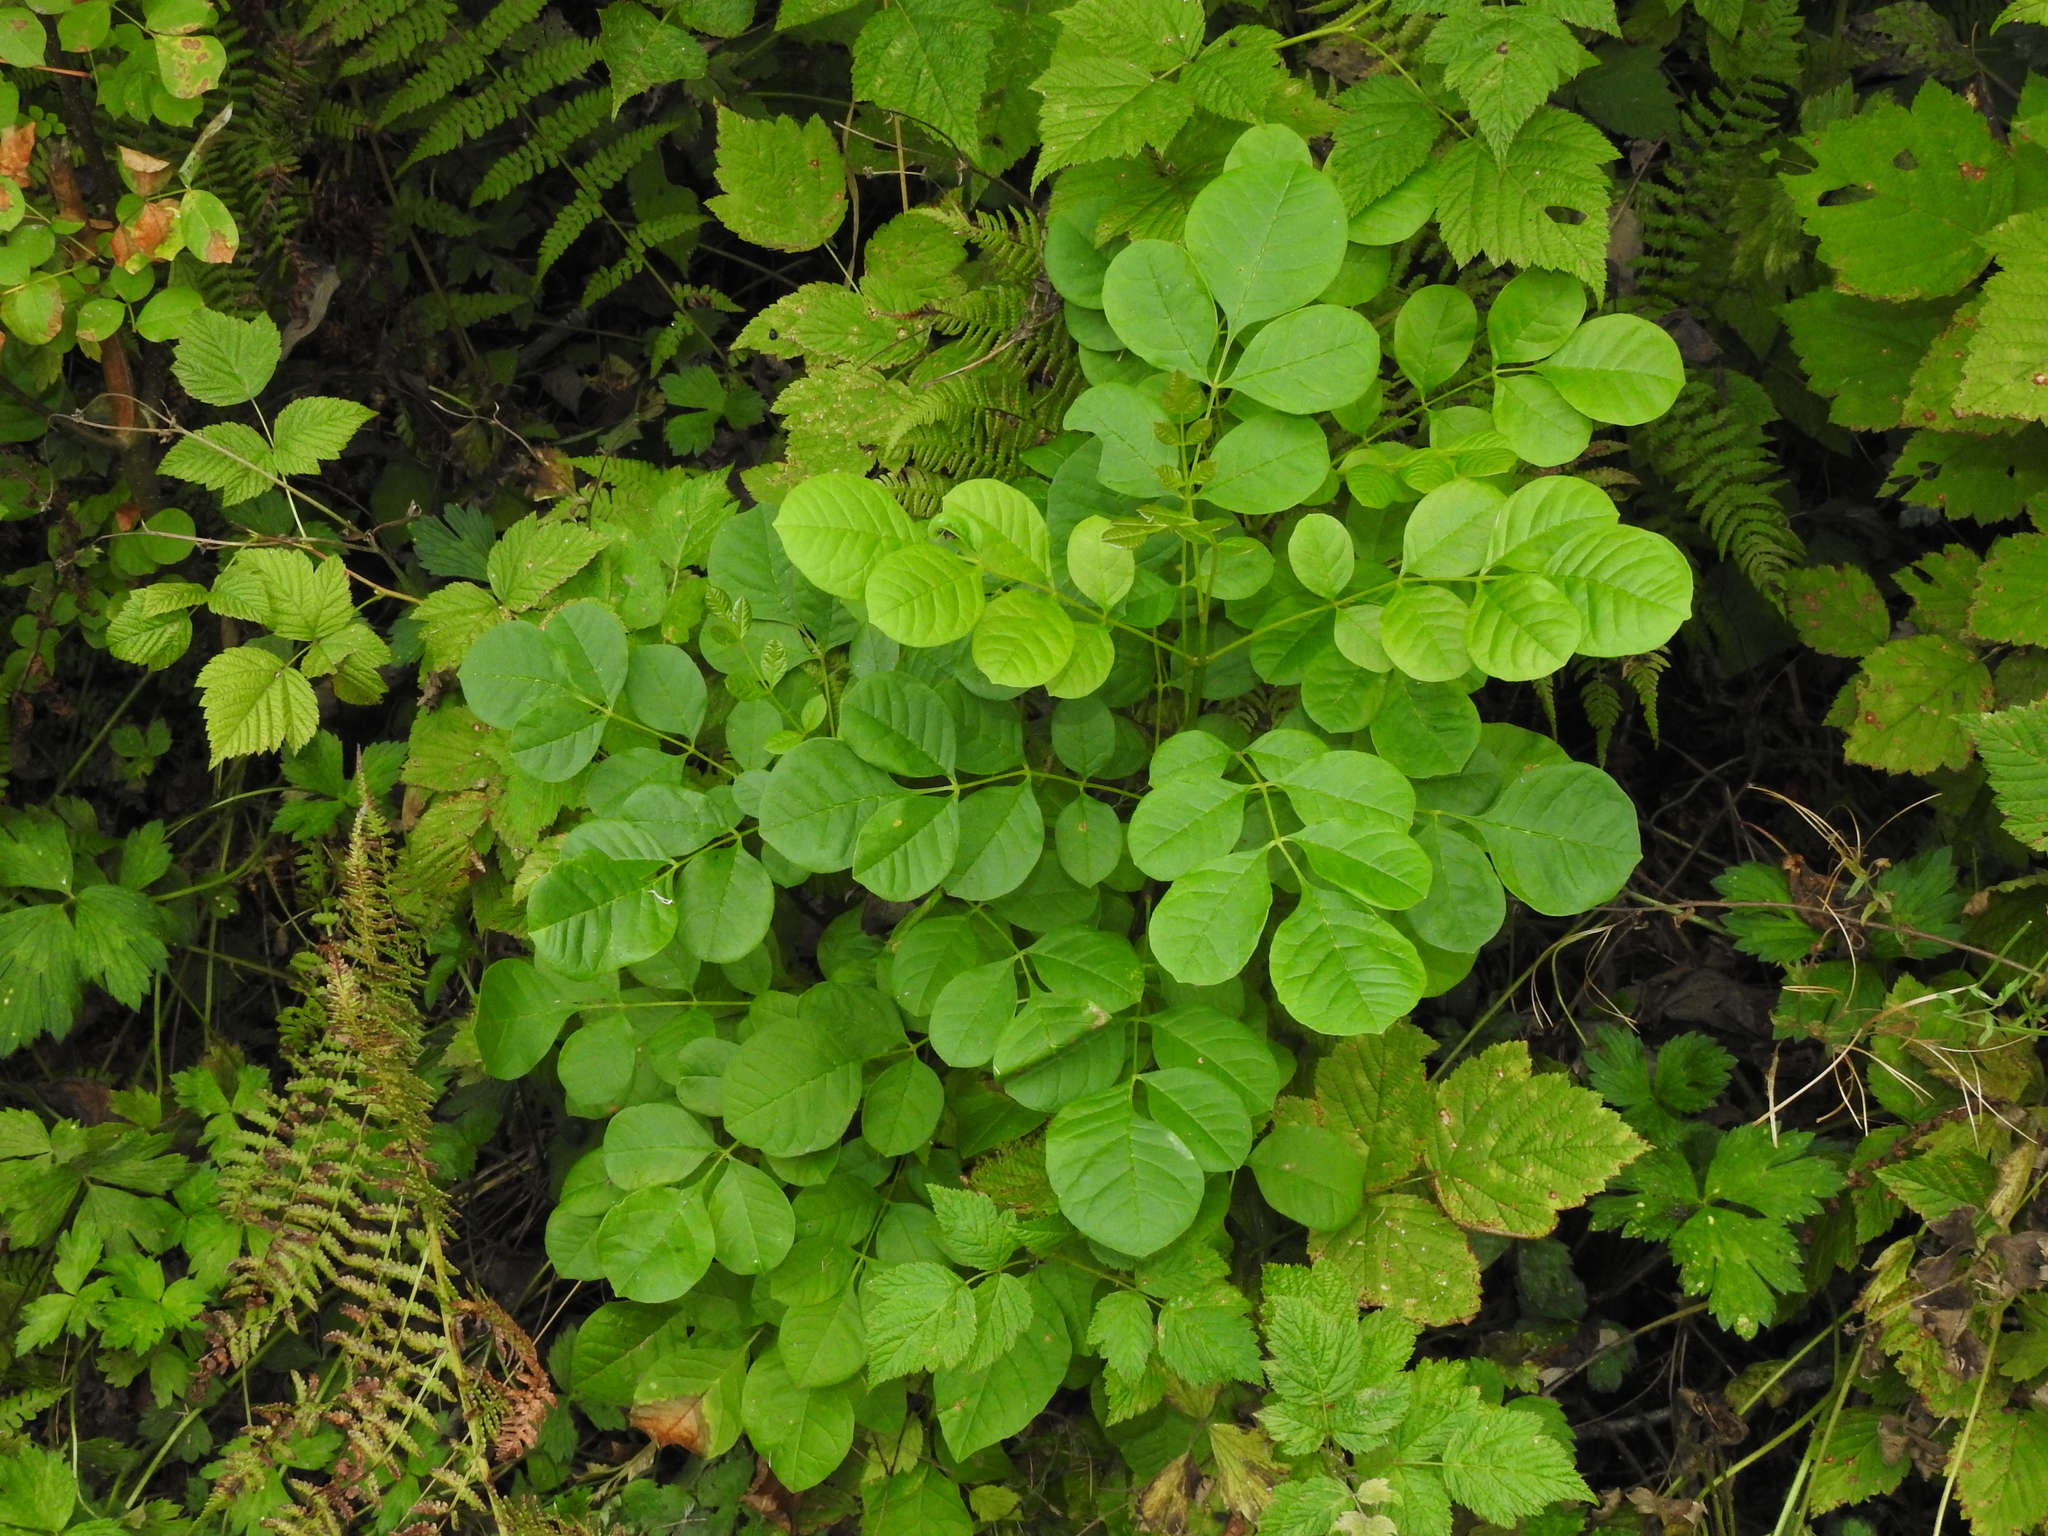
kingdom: Plantae
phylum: Tracheophyta
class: Magnoliopsida
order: Lamiales
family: Oleaceae
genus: Fraxinus
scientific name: Fraxinus latifolia
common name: Oregon ash
